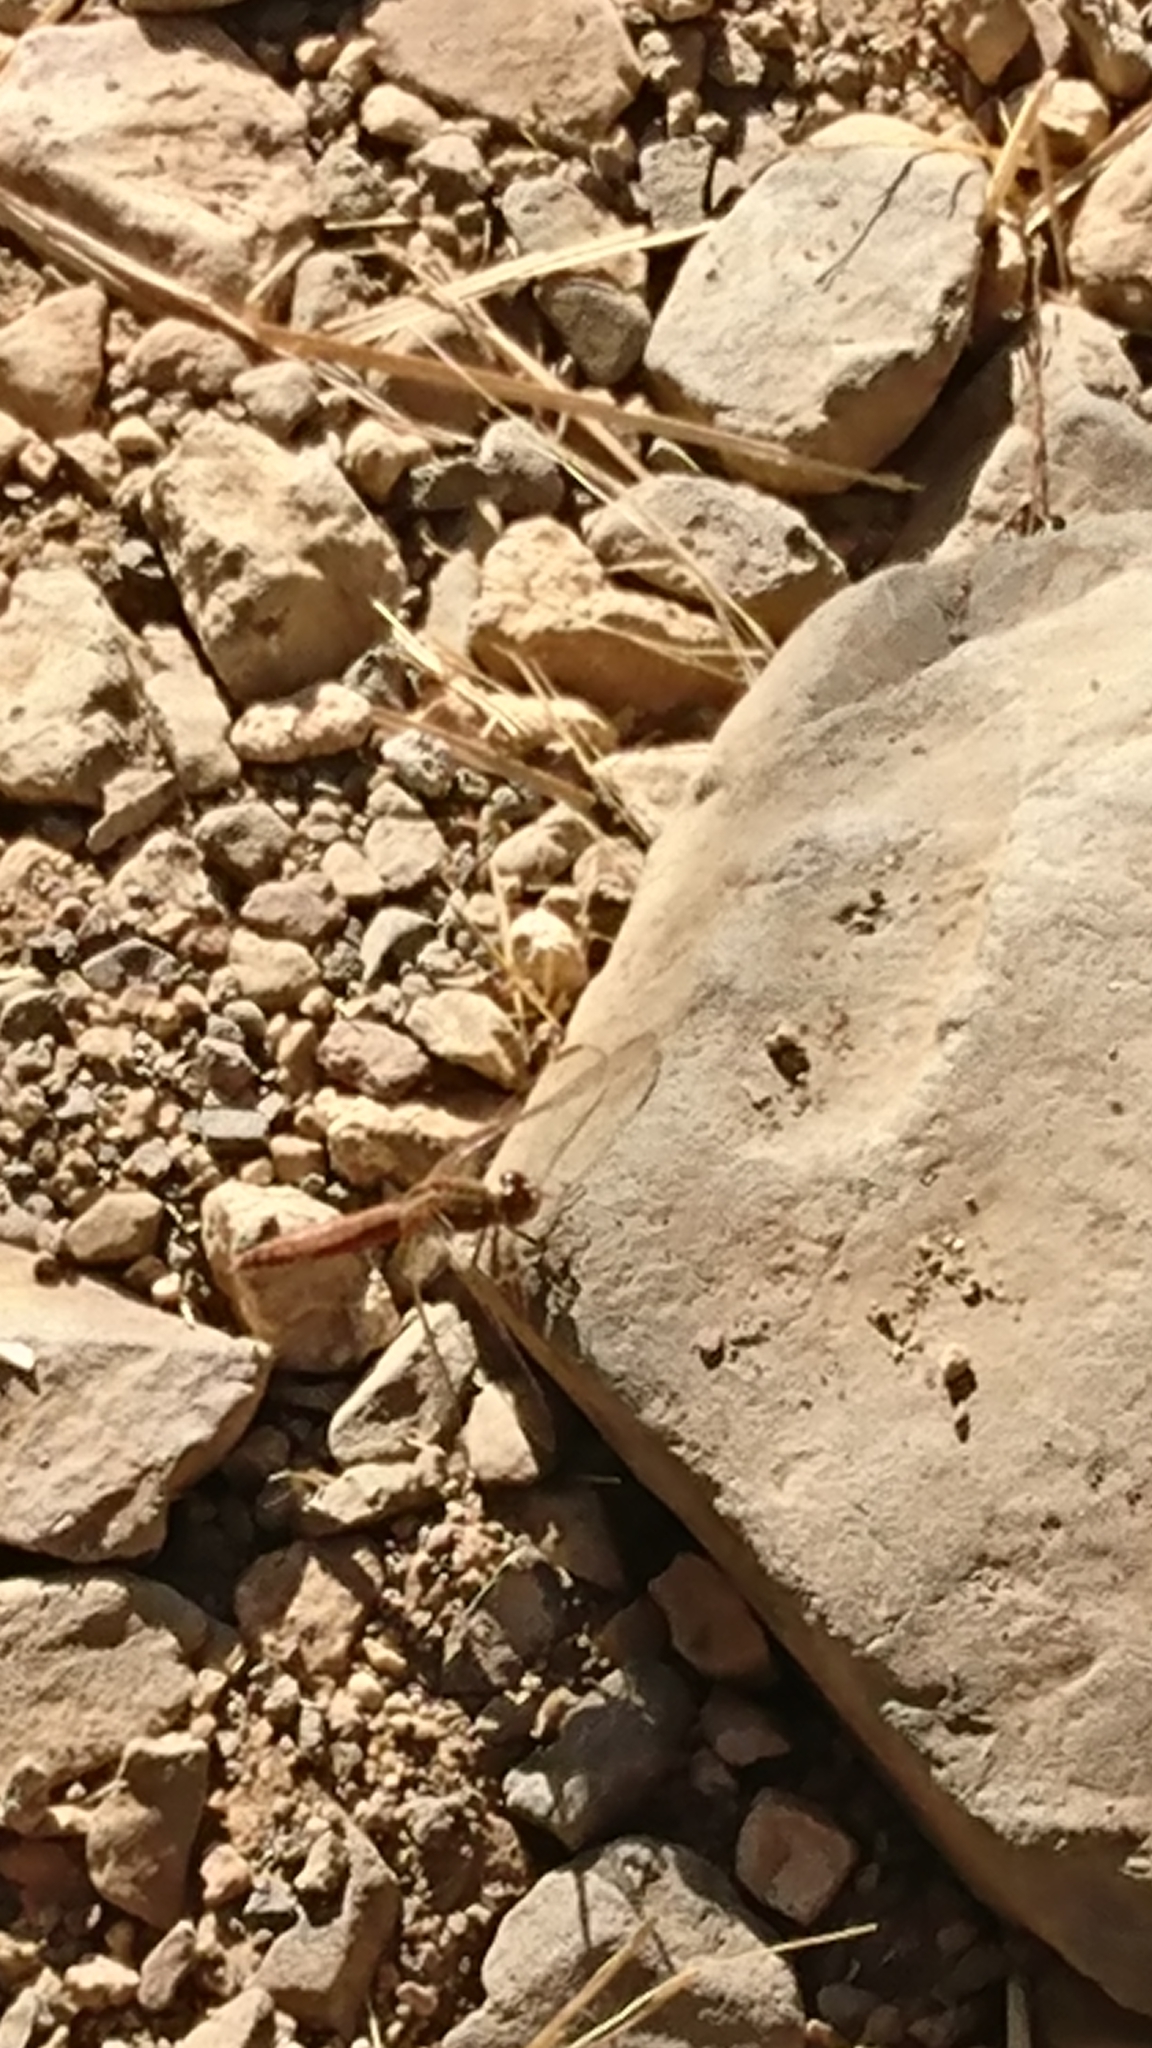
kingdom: Animalia
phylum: Arthropoda
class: Insecta
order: Odonata
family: Libellulidae
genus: Crocothemis
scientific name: Crocothemis erythraea
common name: Scarlet dragonfly
